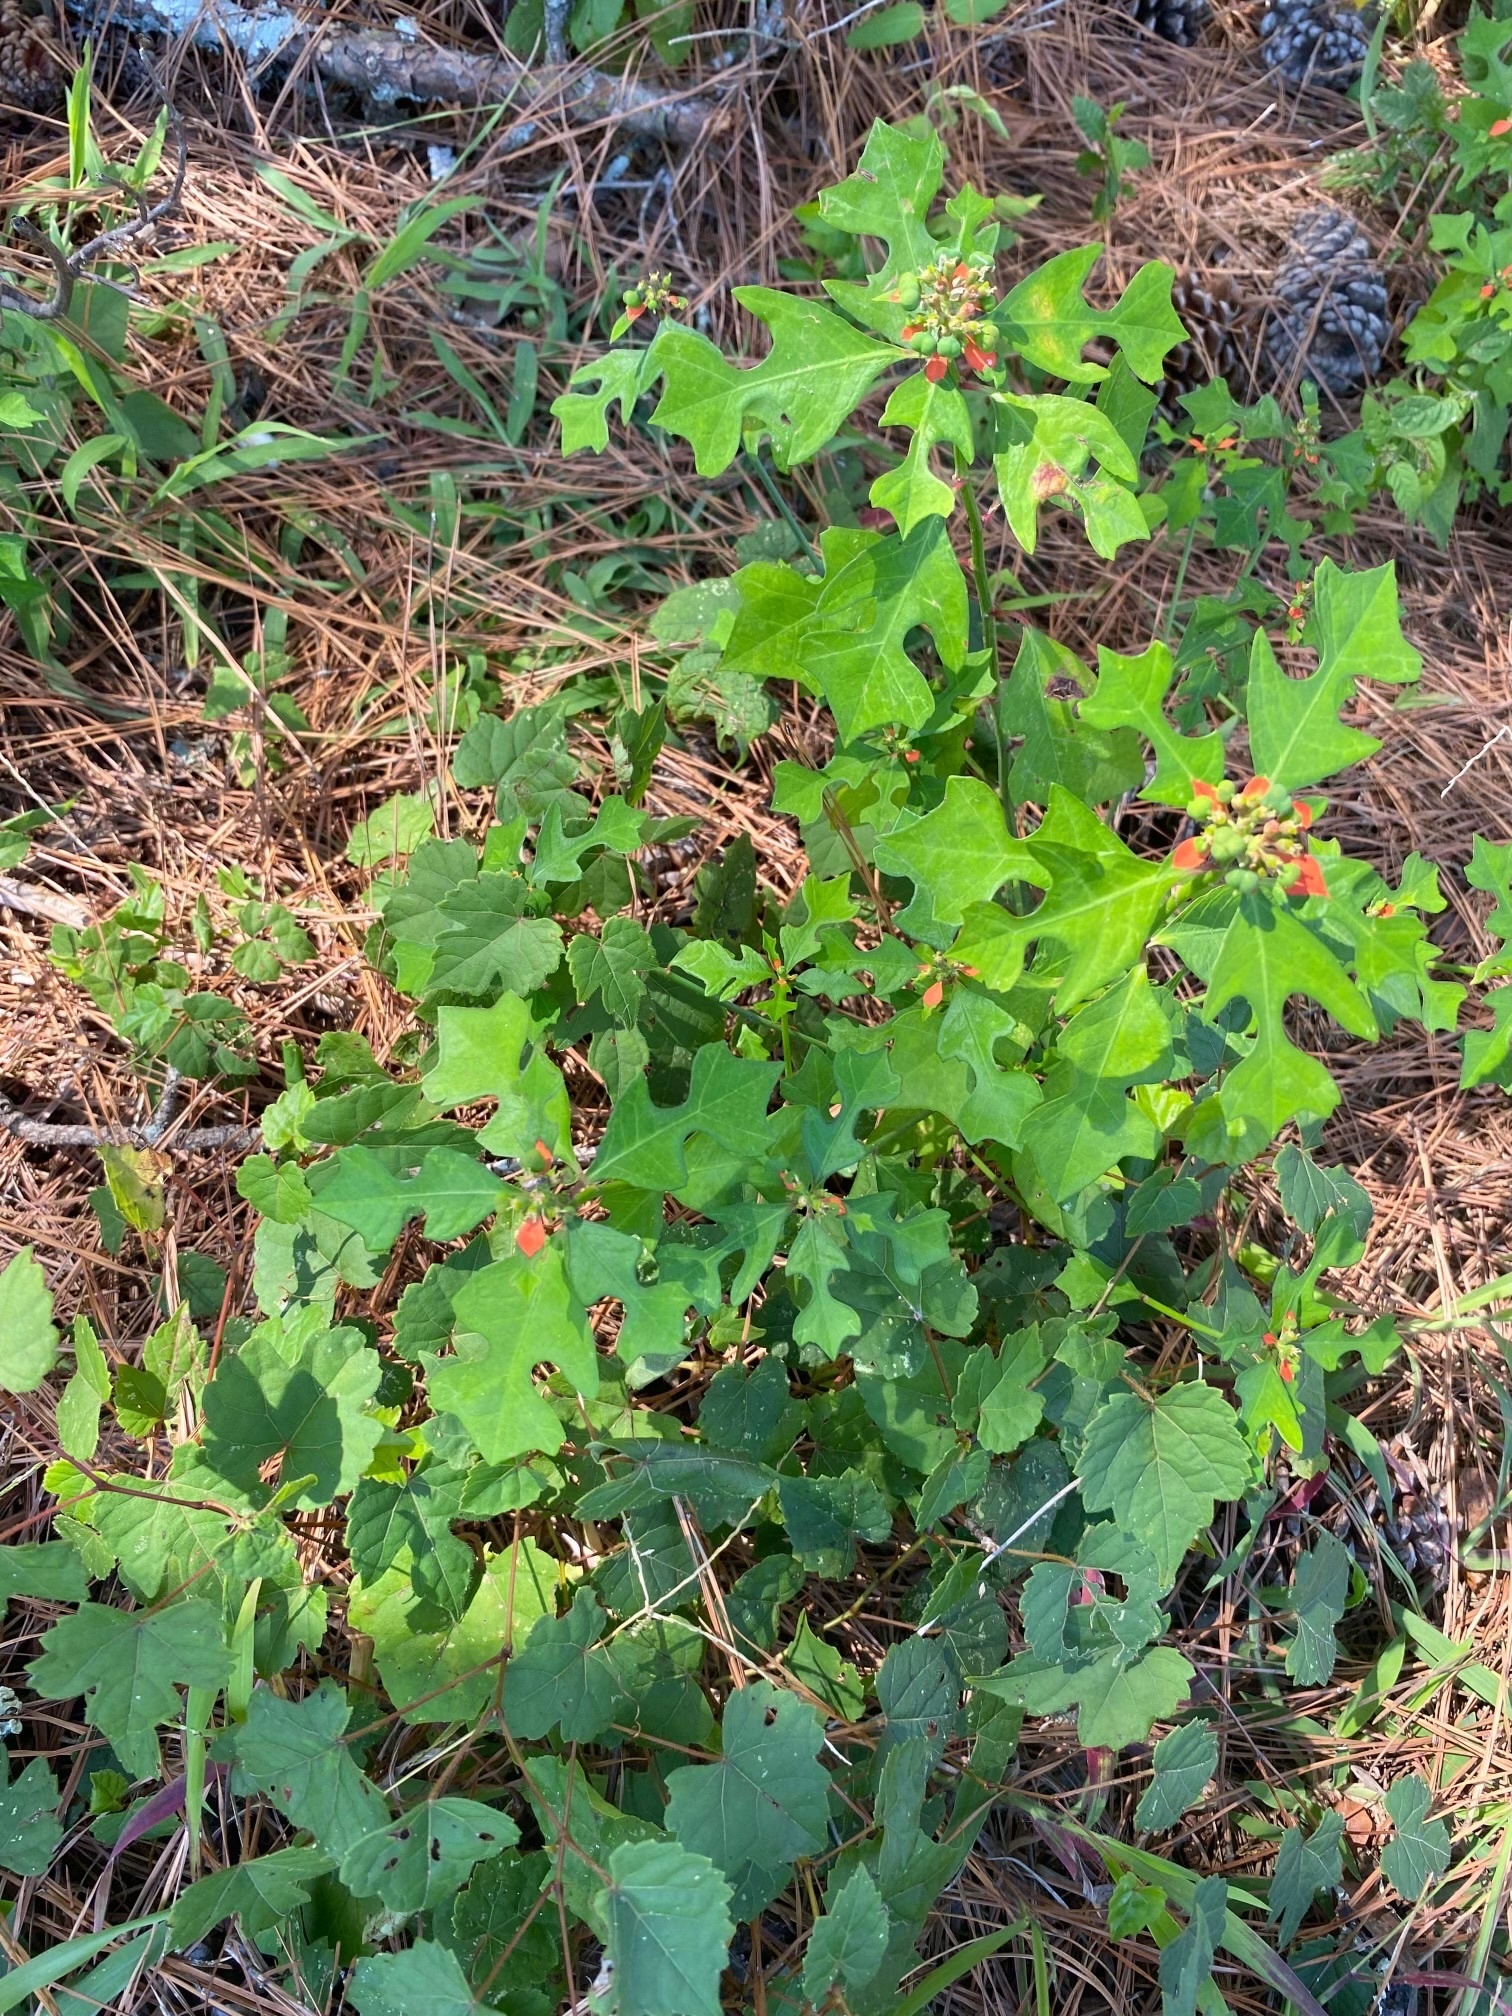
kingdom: Plantae
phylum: Tracheophyta
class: Magnoliopsida
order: Malpighiales
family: Euphorbiaceae
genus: Euphorbia
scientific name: Euphorbia heterophylla
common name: Mexican fireplant
